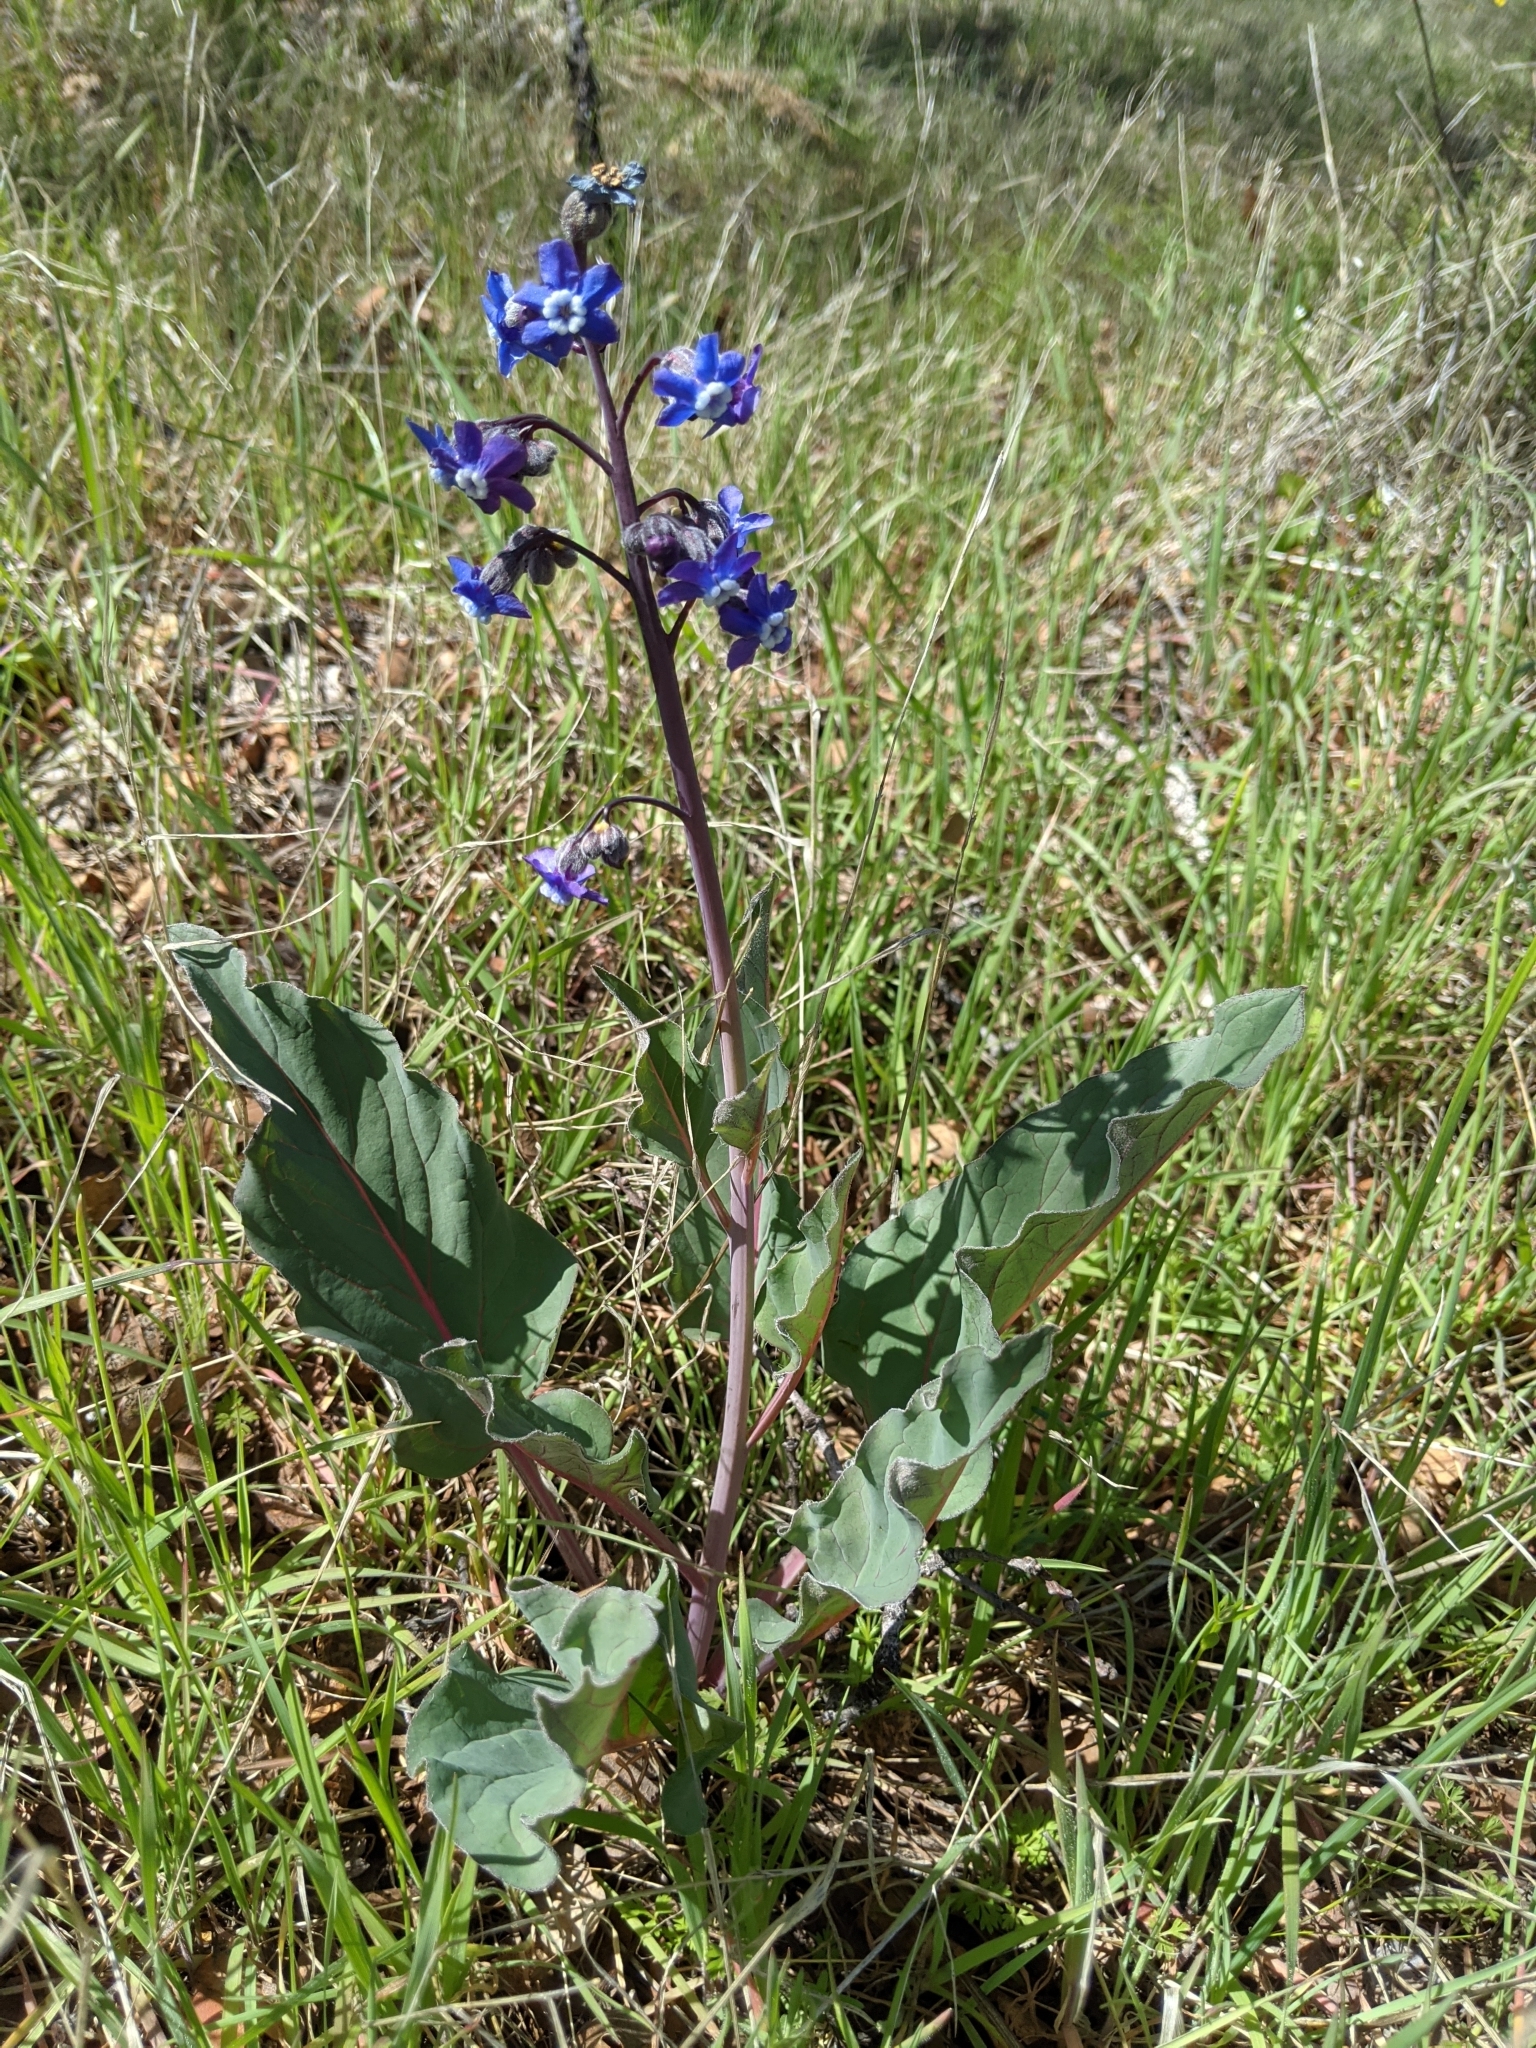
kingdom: Plantae
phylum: Tracheophyta
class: Magnoliopsida
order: Boraginales
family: Boraginaceae
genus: Adelinia
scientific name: Adelinia grande
